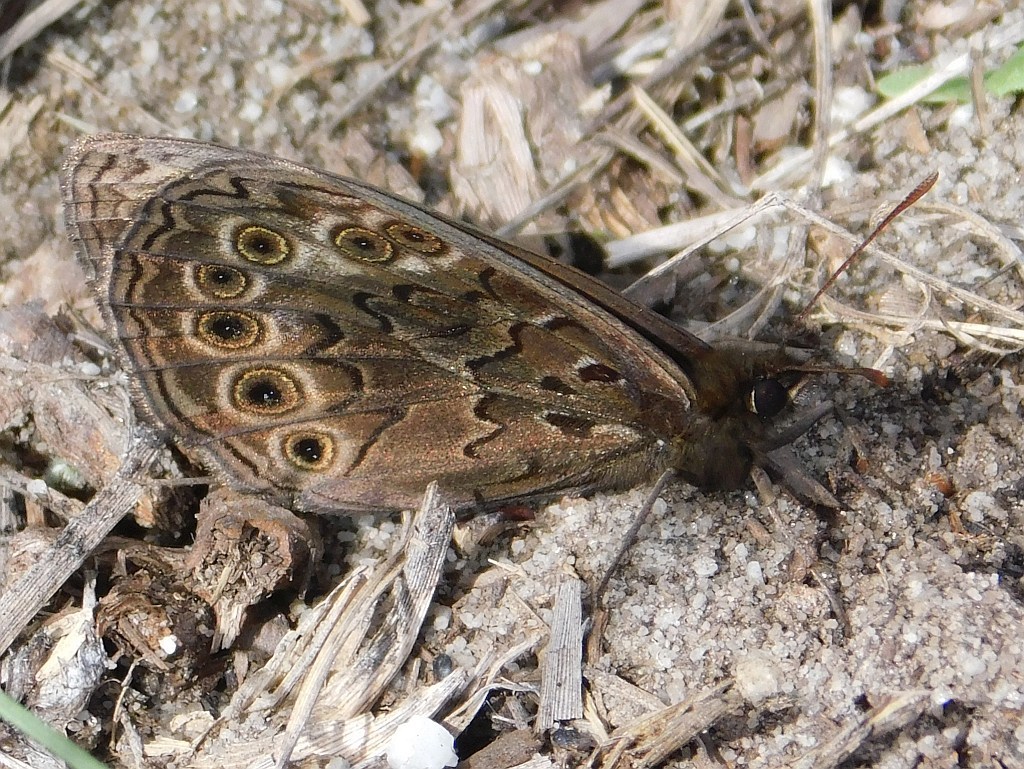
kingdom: Animalia
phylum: Arthropoda
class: Insecta
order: Lepidoptera
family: Nymphalidae
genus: Dira
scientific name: Dira clytus
